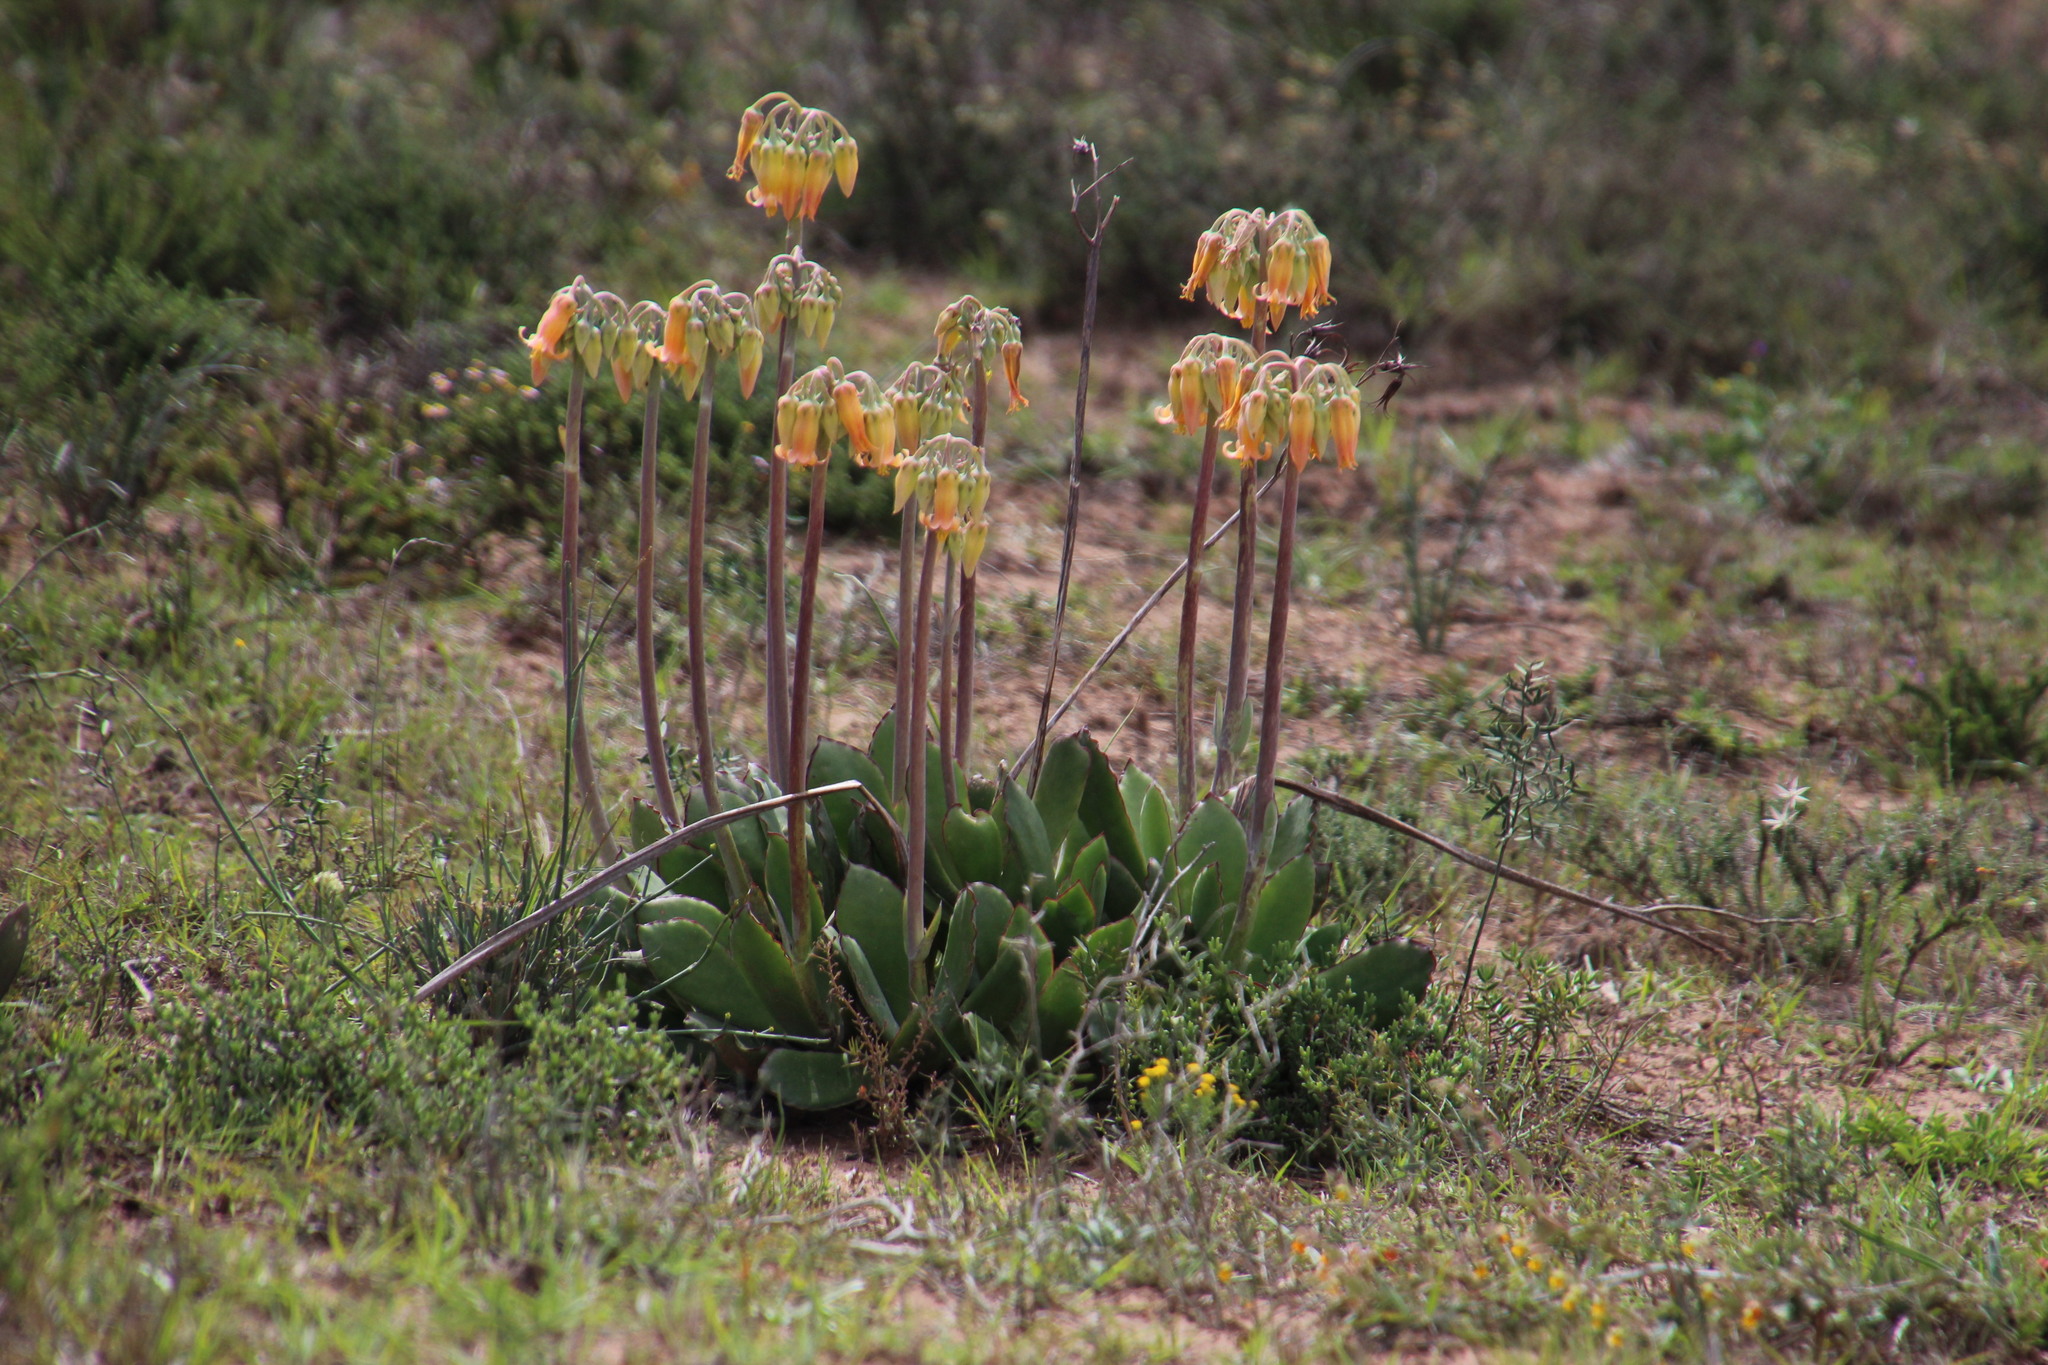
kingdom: Plantae
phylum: Tracheophyta
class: Magnoliopsida
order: Saxifragales
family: Crassulaceae
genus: Cotyledon
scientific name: Cotyledon orbiculata
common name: Pig's ear
